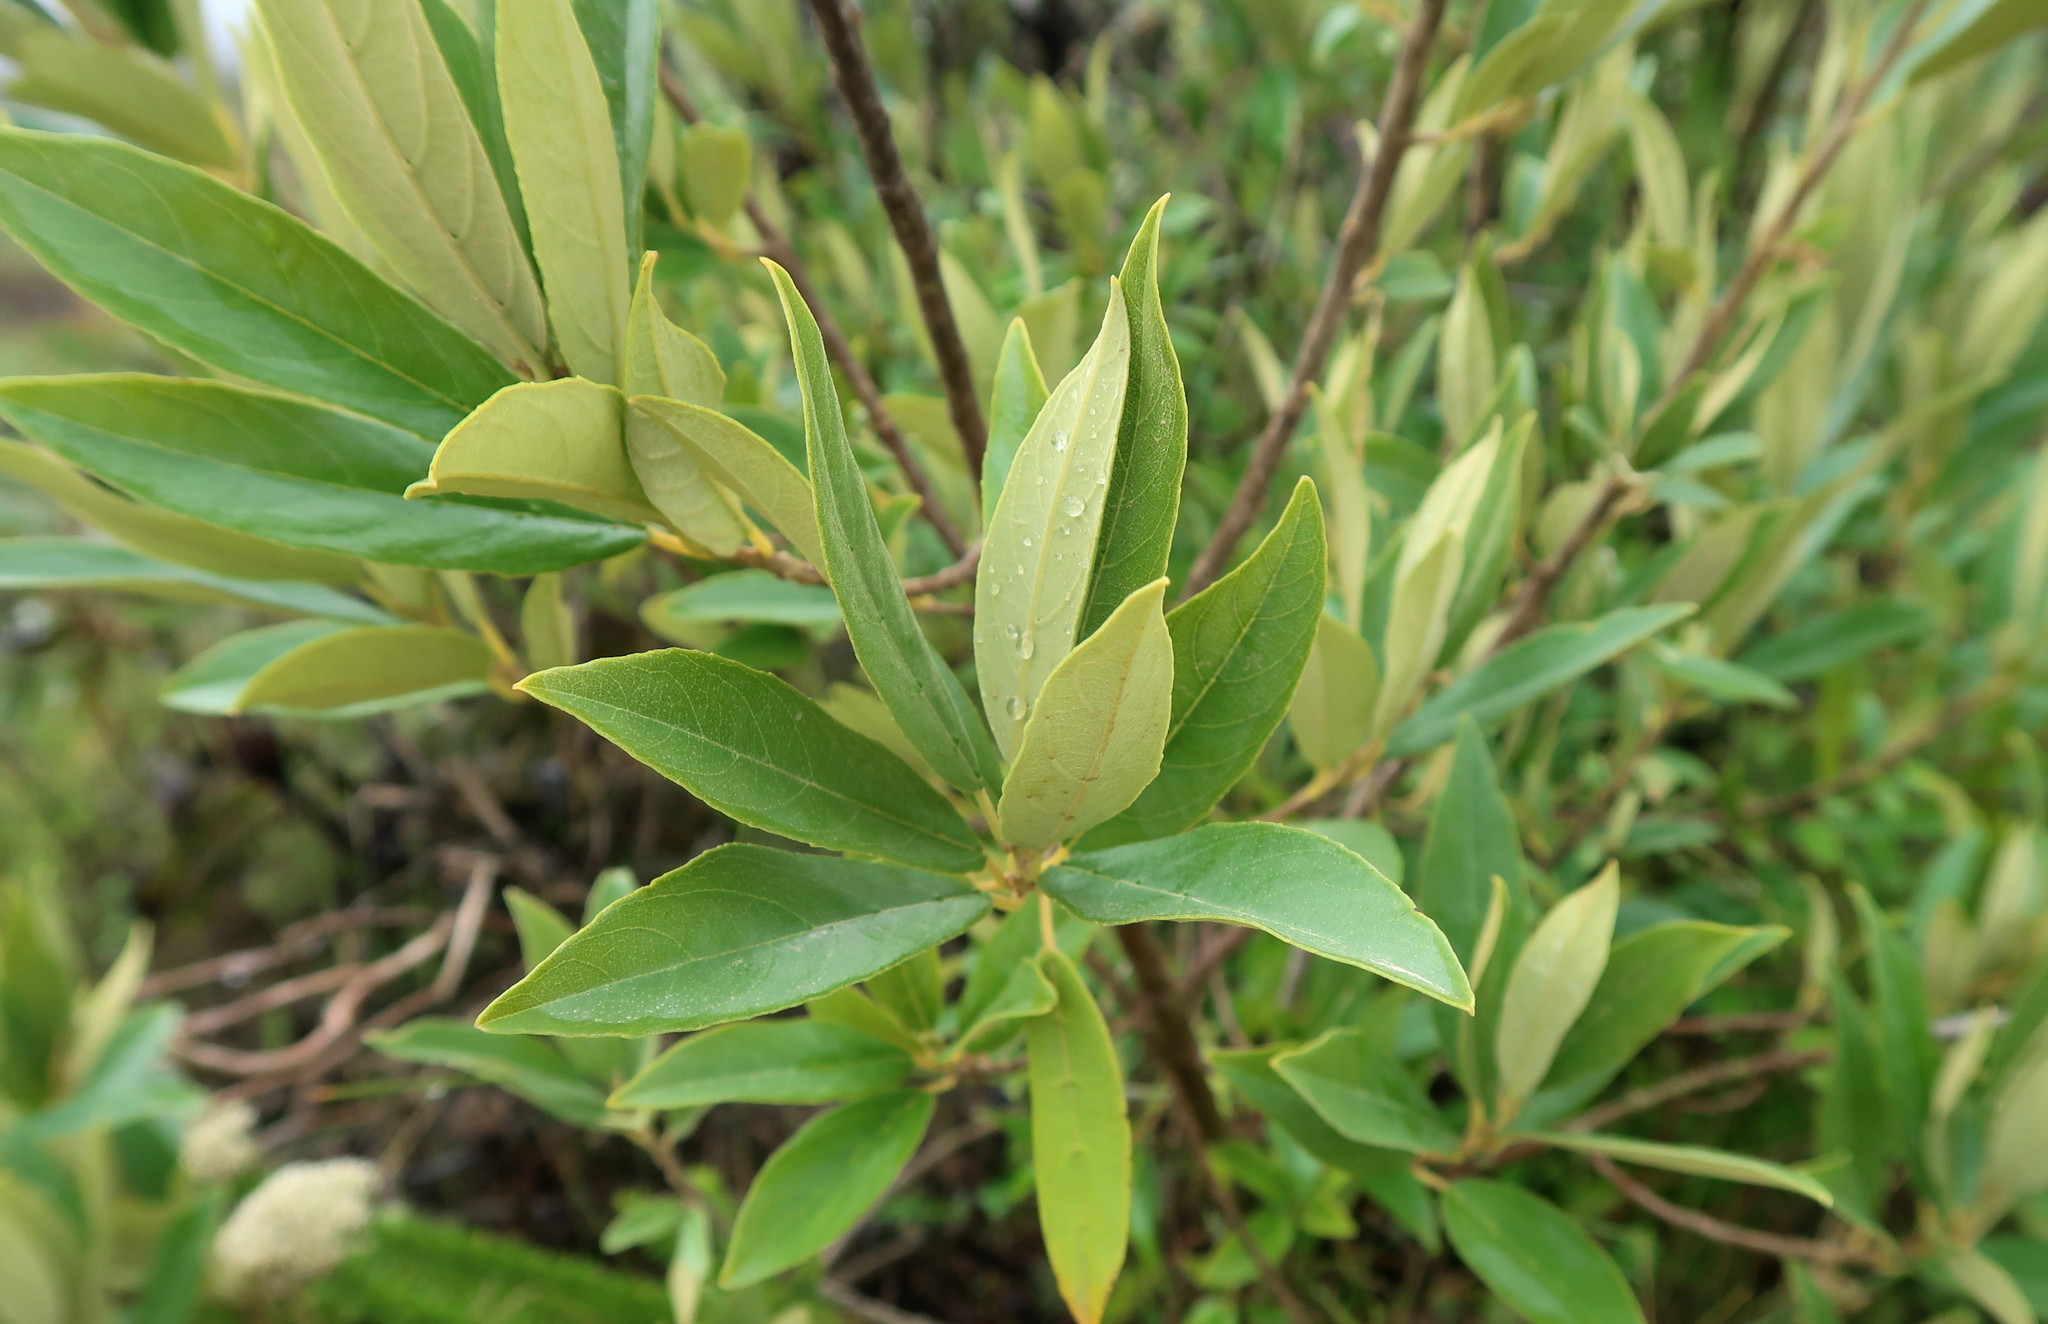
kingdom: Plantae
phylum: Tracheophyta
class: Magnoliopsida
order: Malpighiales
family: Achariaceae
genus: Kiggelaria
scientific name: Kiggelaria africana
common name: Wild peach
